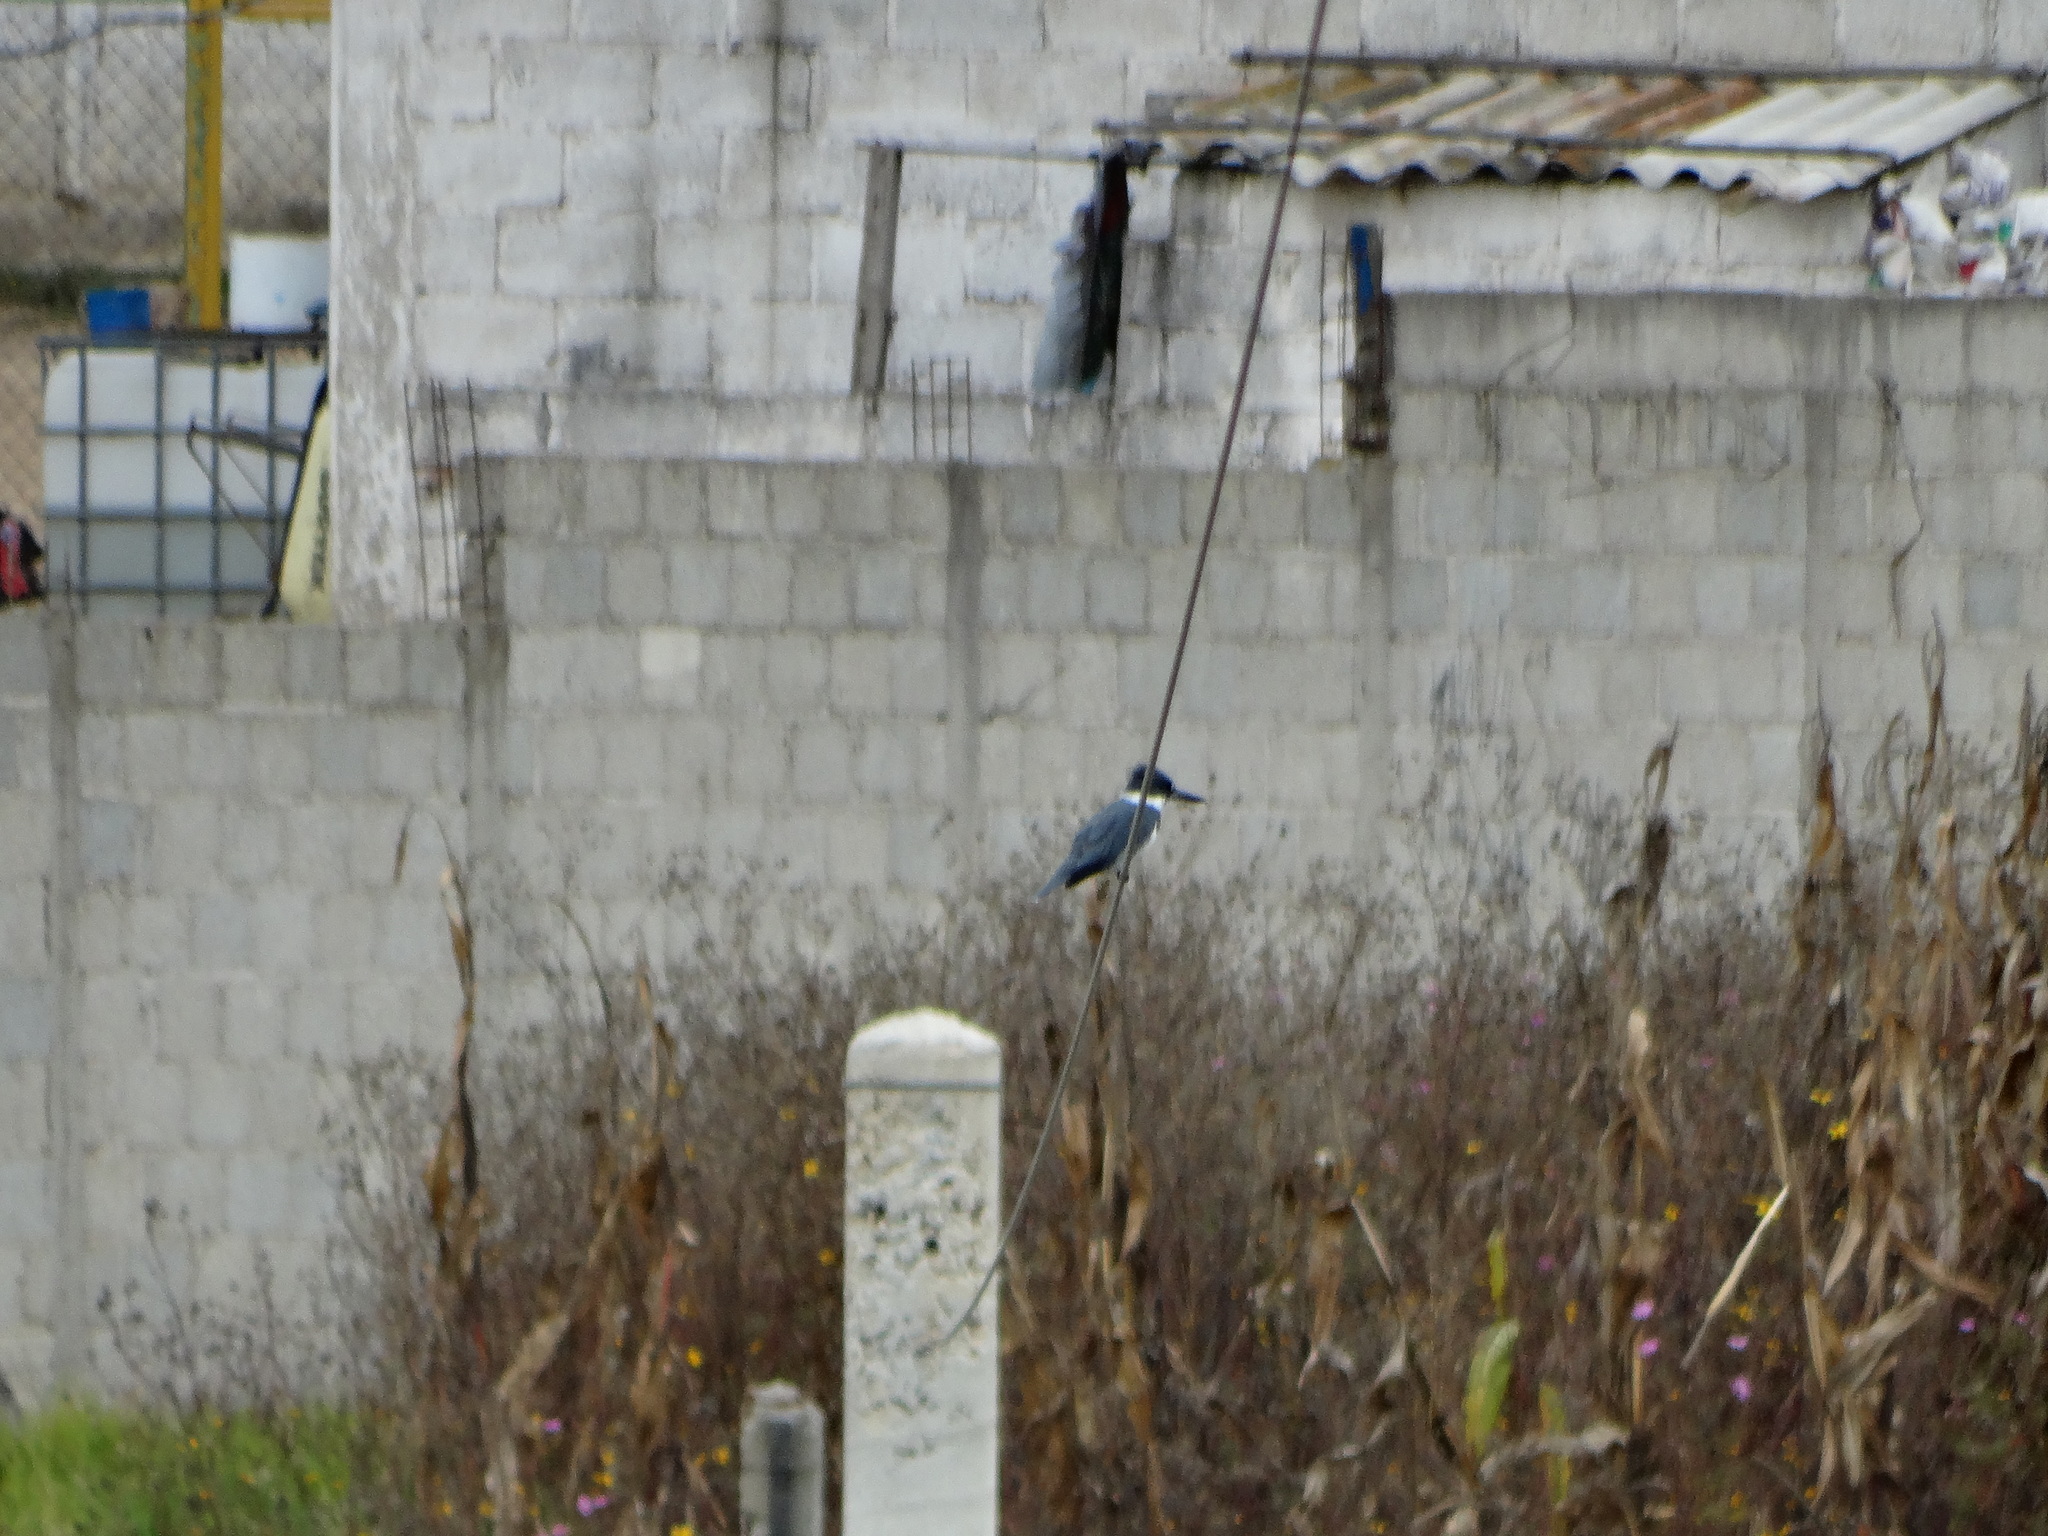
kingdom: Animalia
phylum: Chordata
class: Aves
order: Coraciiformes
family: Alcedinidae
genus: Megaceryle
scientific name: Megaceryle alcyon
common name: Belted kingfisher
